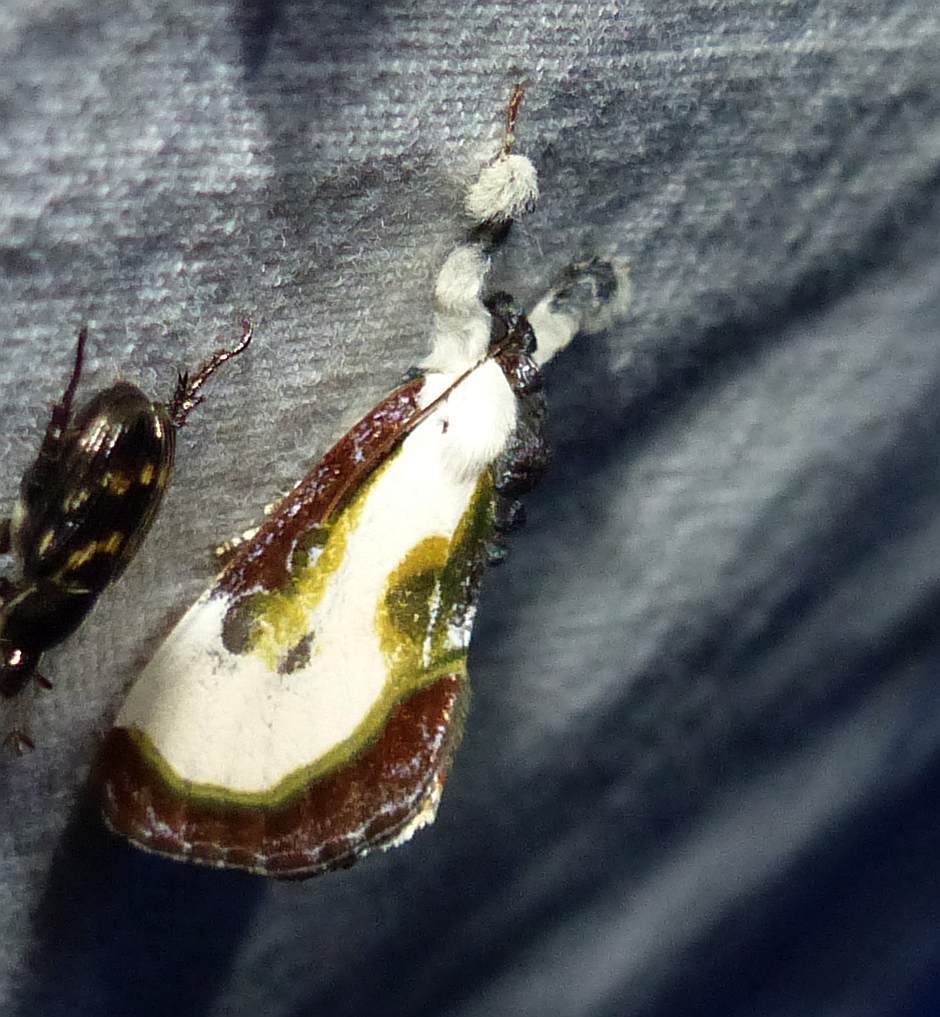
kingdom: Animalia
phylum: Arthropoda
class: Insecta
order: Lepidoptera
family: Noctuidae
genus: Eudryas
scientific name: Eudryas grata
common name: Beautiful wood-nymph
